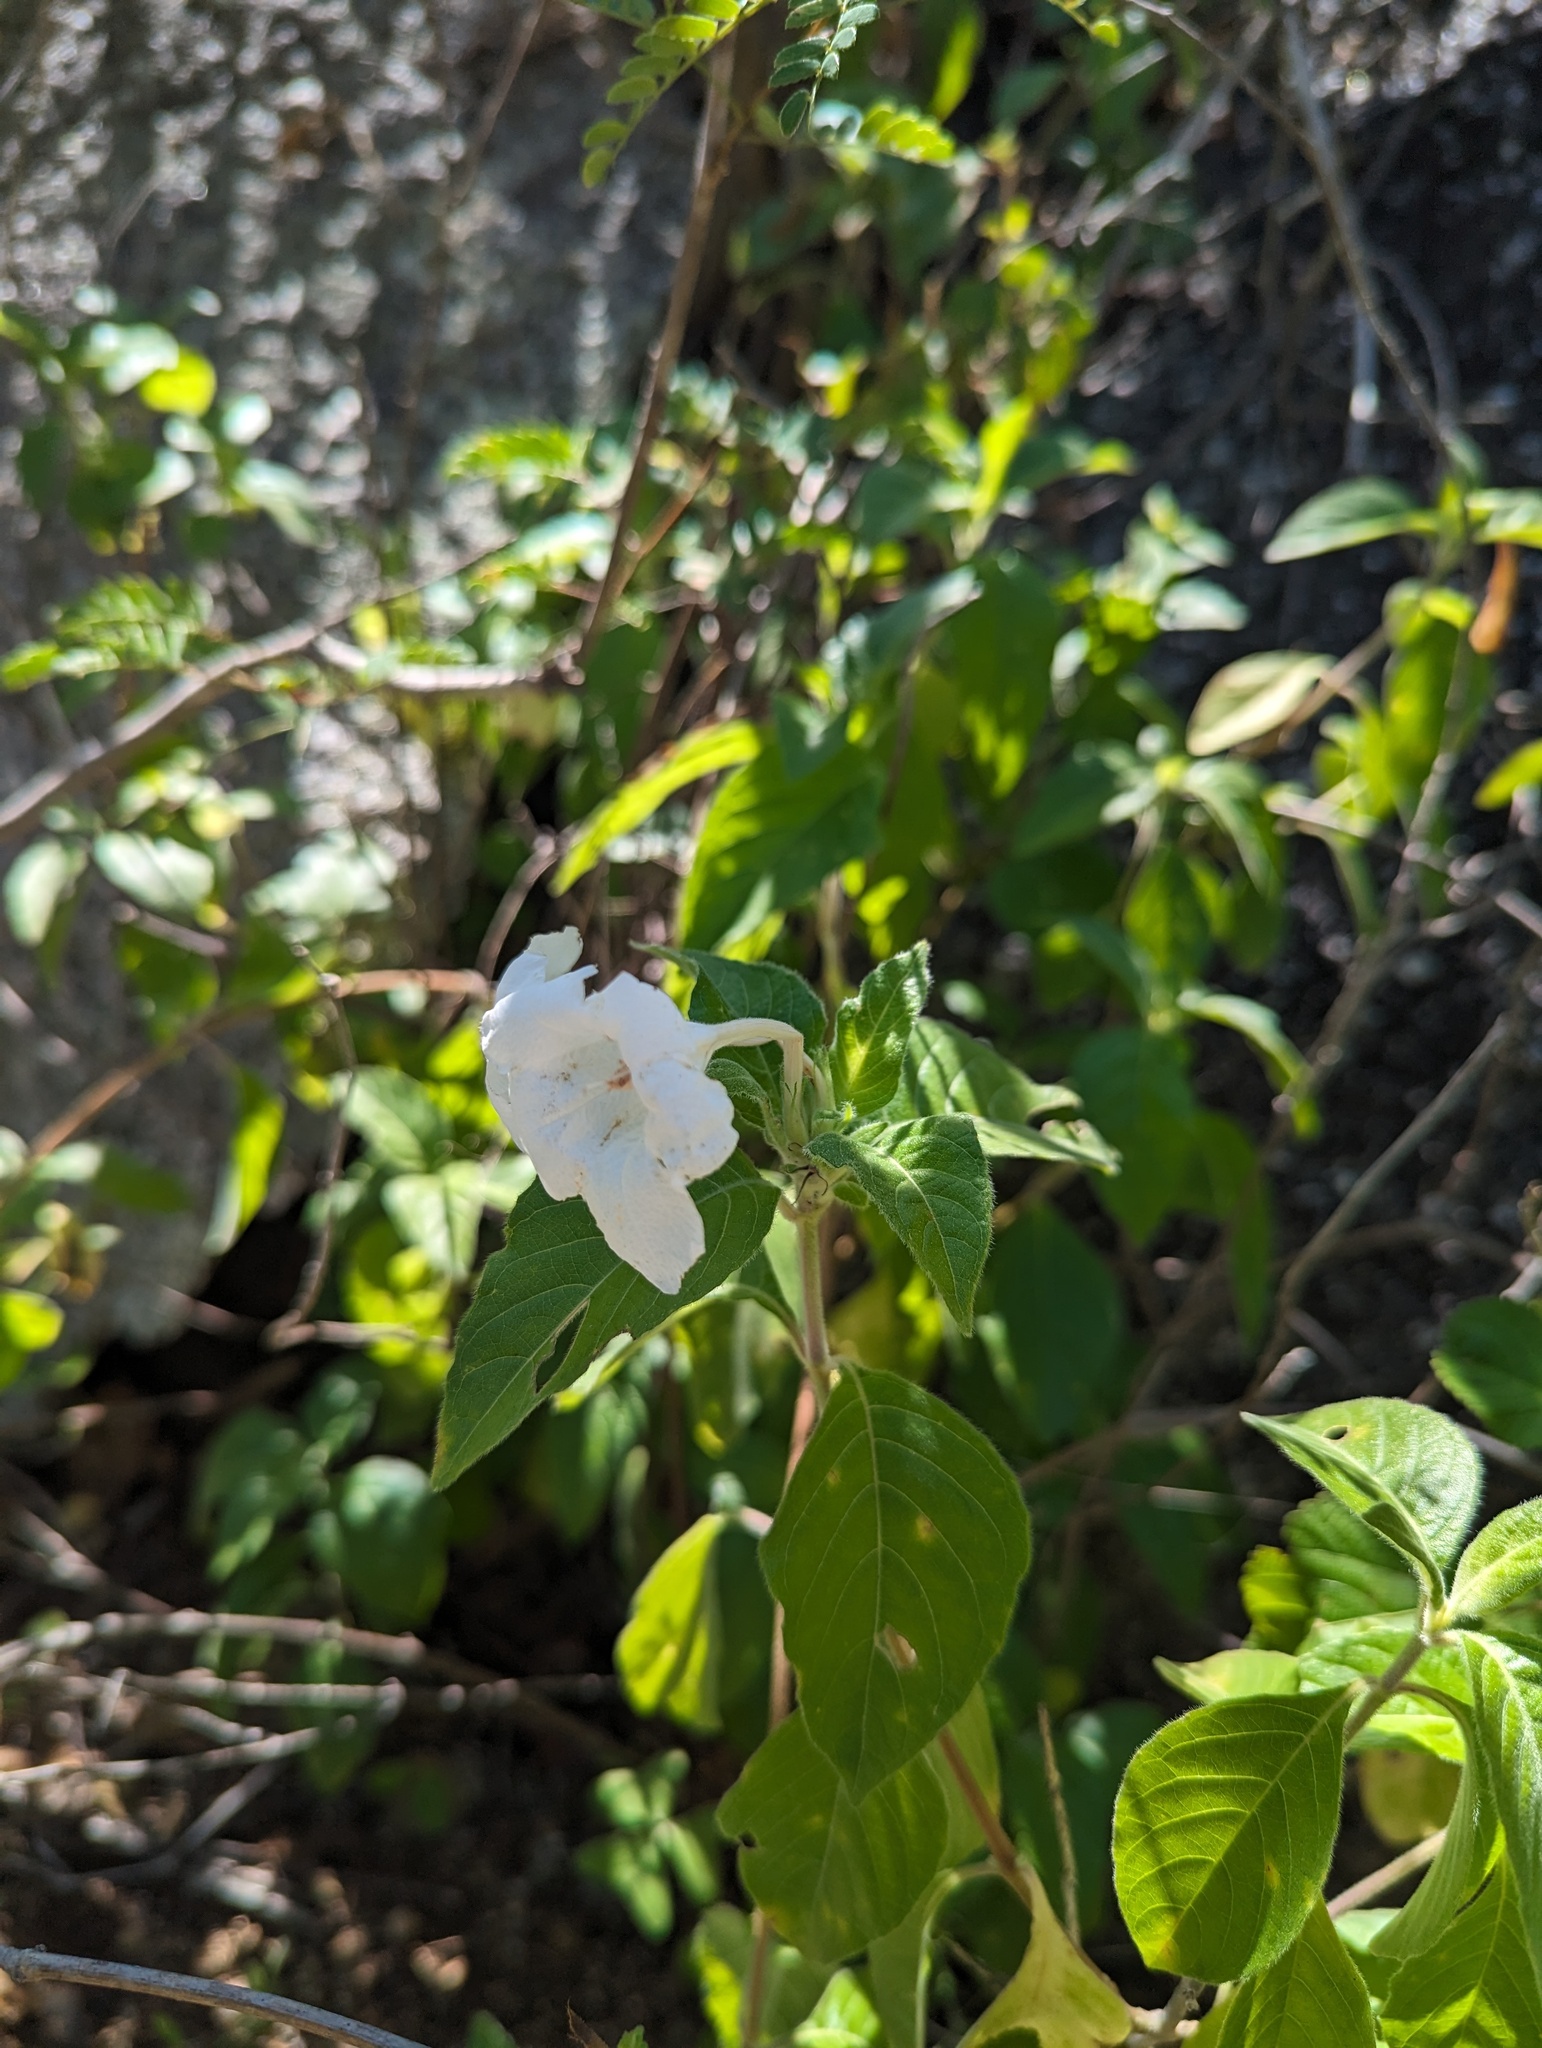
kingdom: Plantae
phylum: Tracheophyta
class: Magnoliopsida
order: Lamiales
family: Acanthaceae
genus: Ruellia
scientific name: Ruellia leucantha
